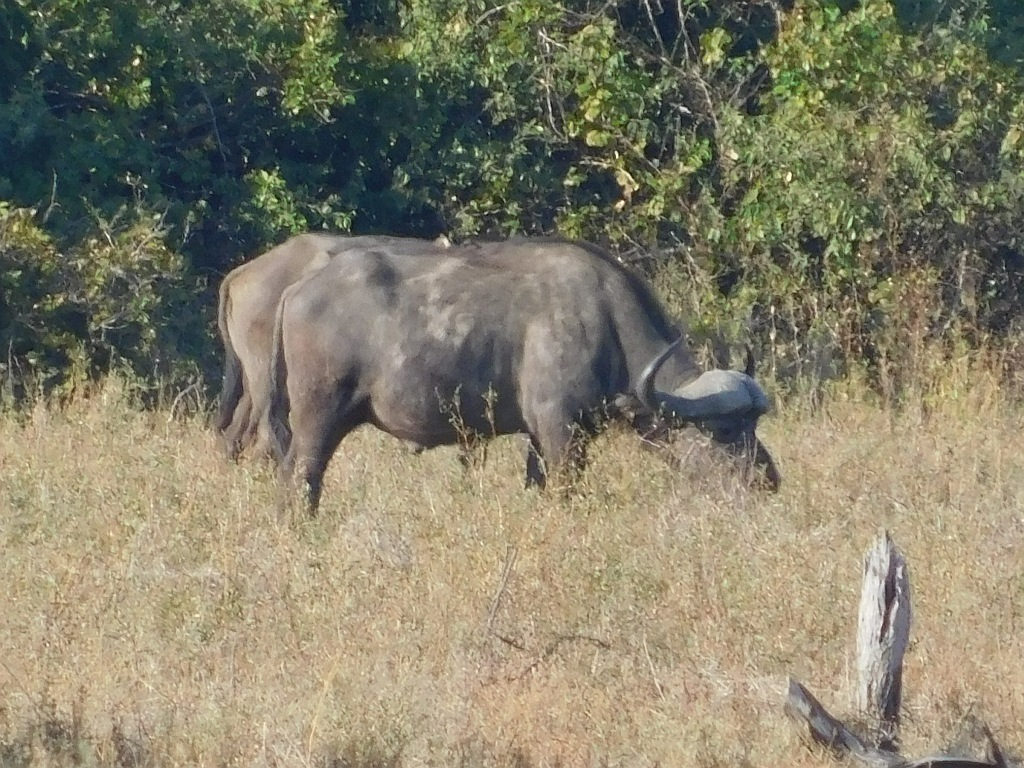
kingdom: Animalia
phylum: Chordata
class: Mammalia
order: Artiodactyla
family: Bovidae
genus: Syncerus
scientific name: Syncerus caffer
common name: African buffalo
